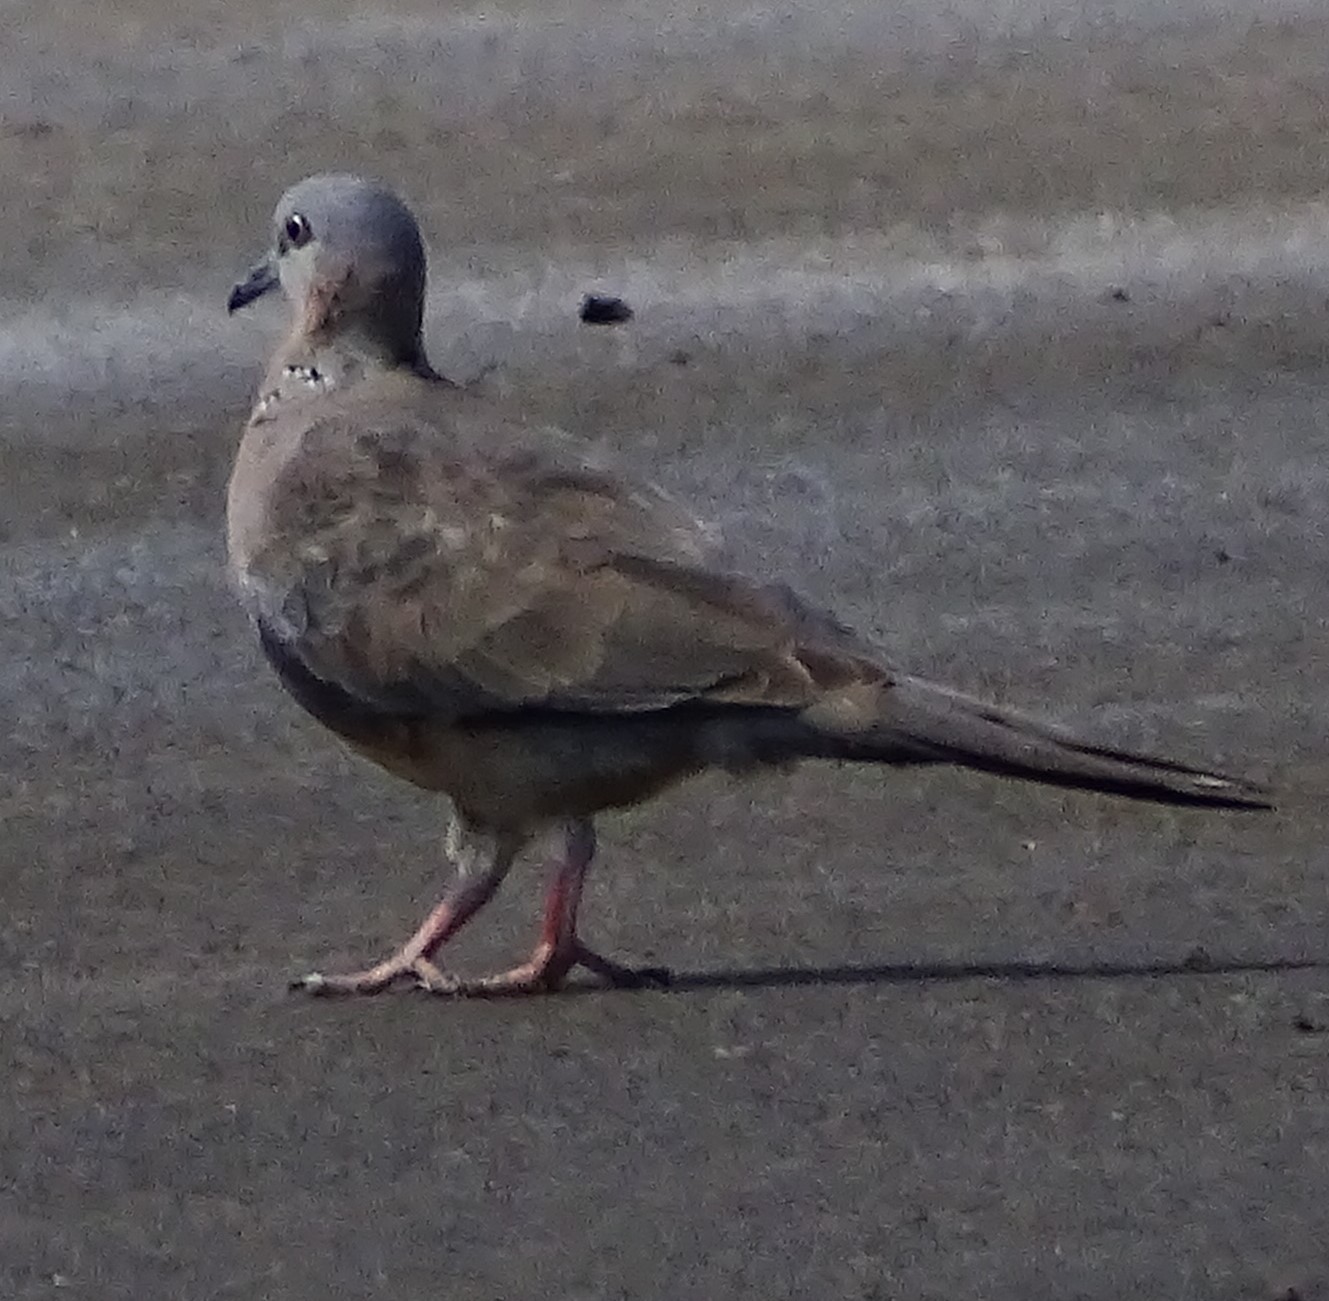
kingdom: Animalia
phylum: Chordata
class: Aves
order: Columbiformes
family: Columbidae
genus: Spilopelia
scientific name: Spilopelia chinensis
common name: Spotted dove
